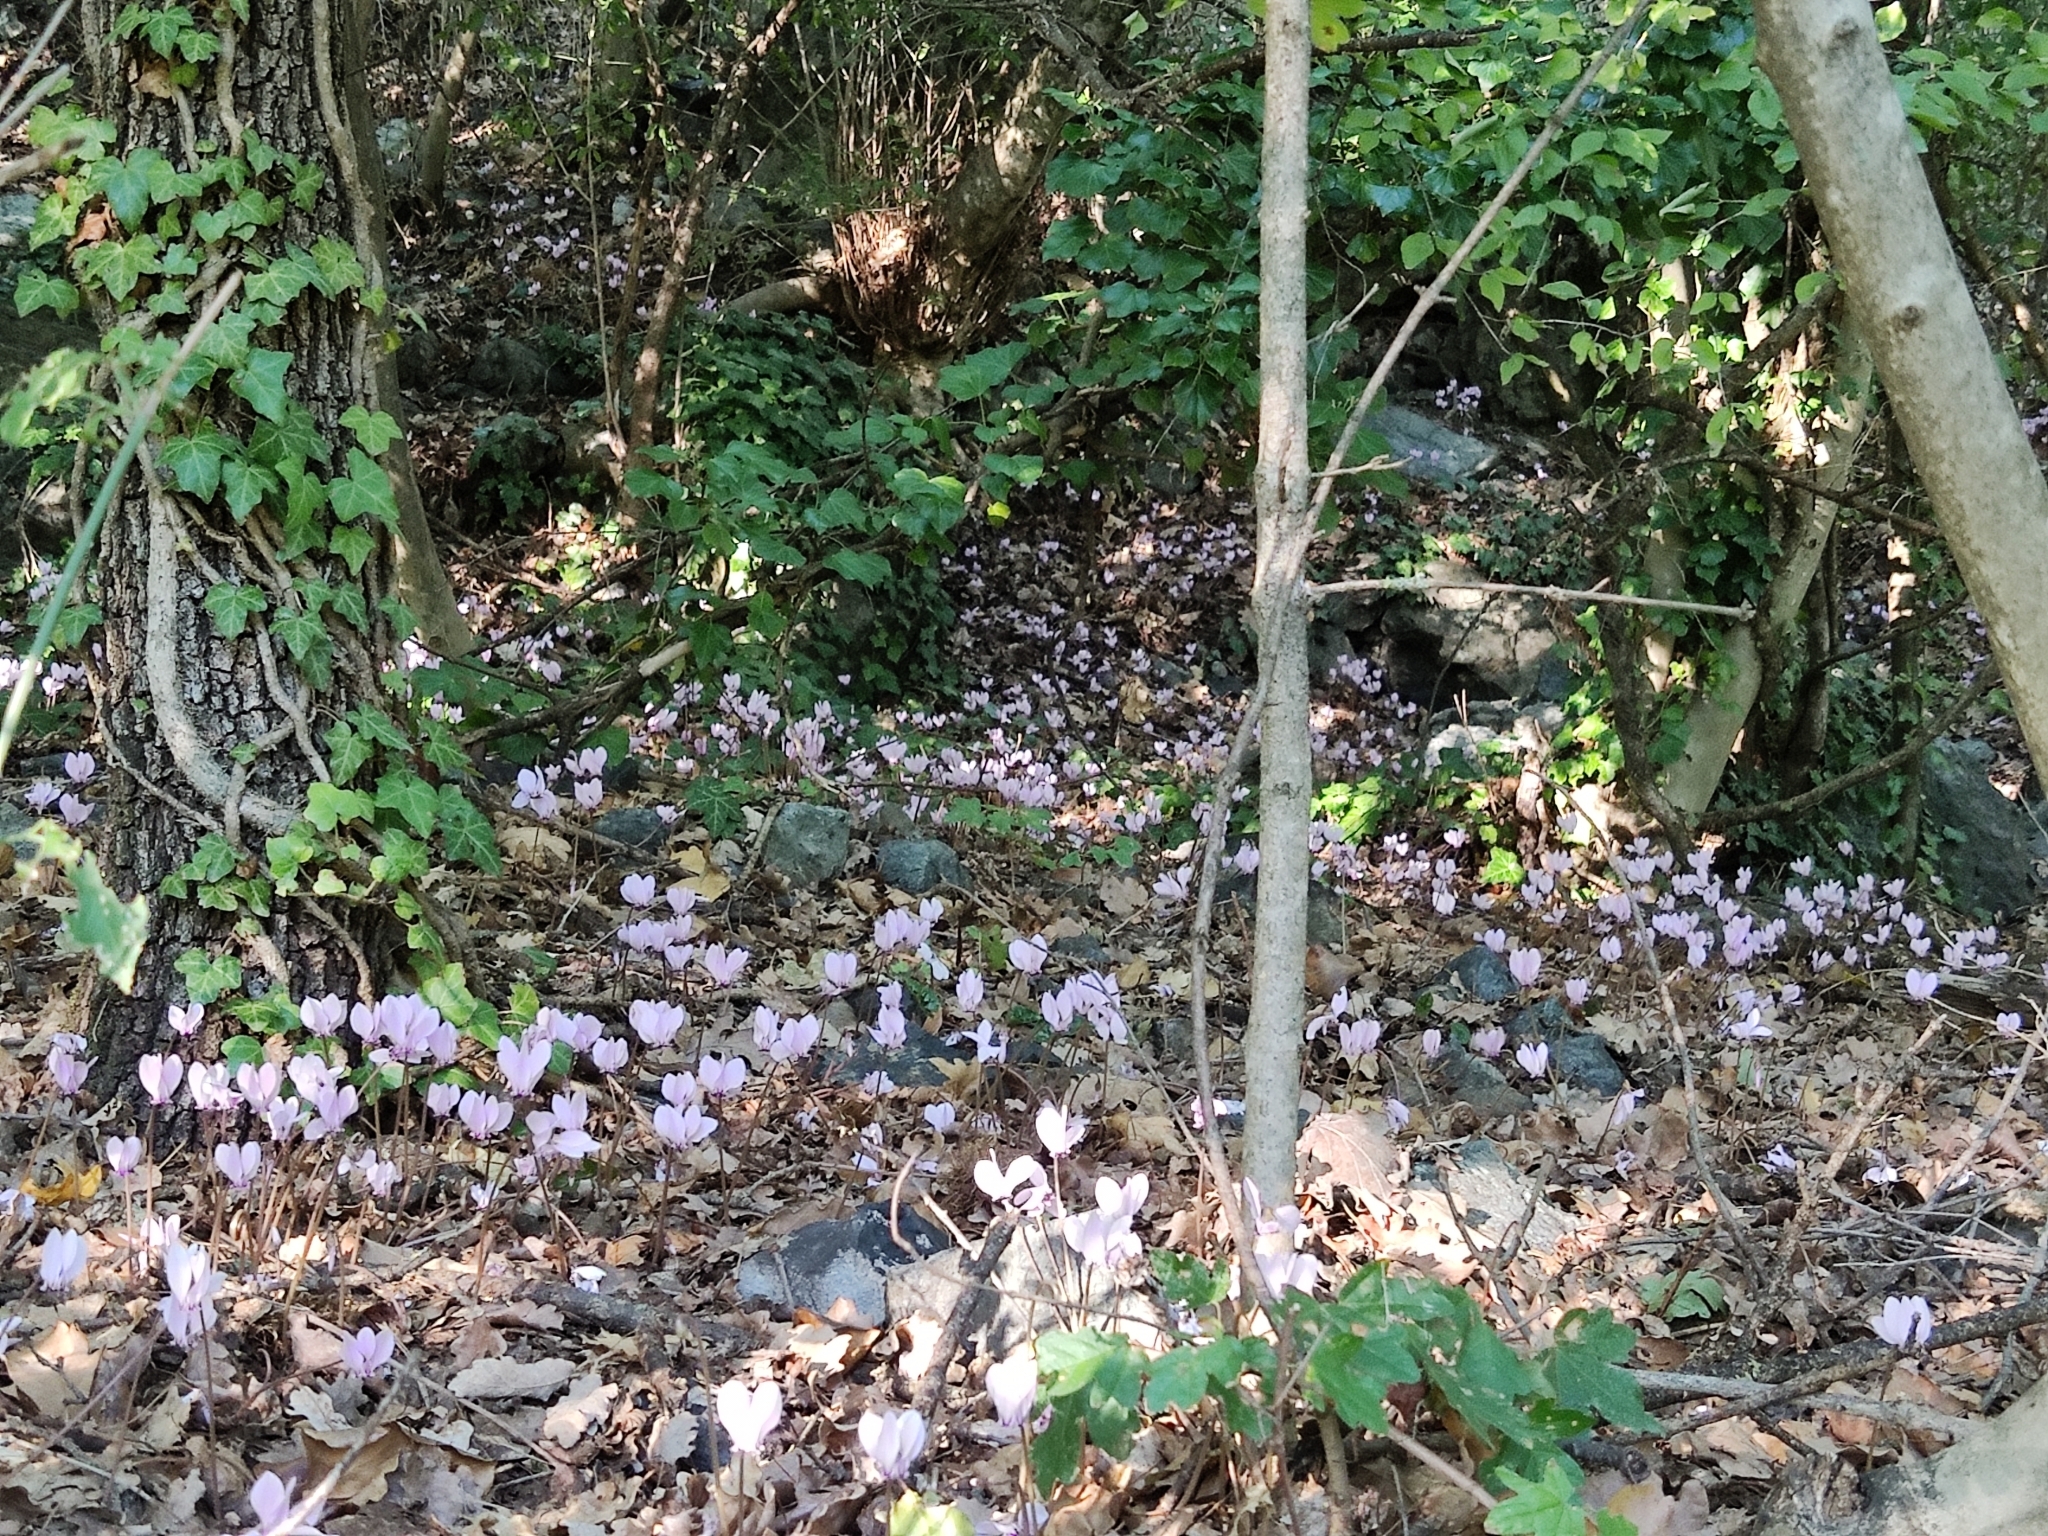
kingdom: Plantae
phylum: Tracheophyta
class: Magnoliopsida
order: Ericales
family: Primulaceae
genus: Cyclamen
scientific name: Cyclamen hederifolium
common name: Sowbread
